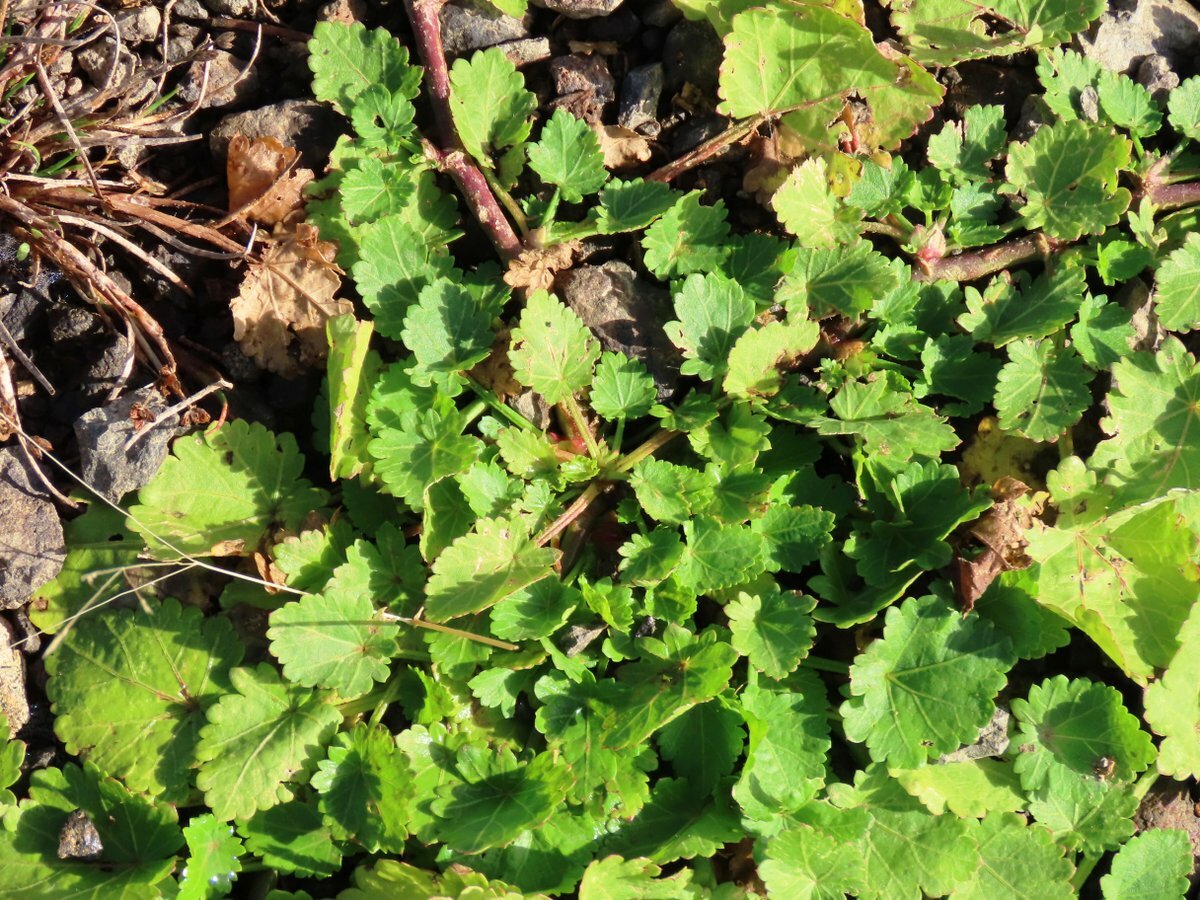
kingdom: Plantae
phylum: Tracheophyta
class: Magnoliopsida
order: Malvales
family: Malvaceae
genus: Modiola
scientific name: Modiola caroliniana
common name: Carolina bristlemallow
